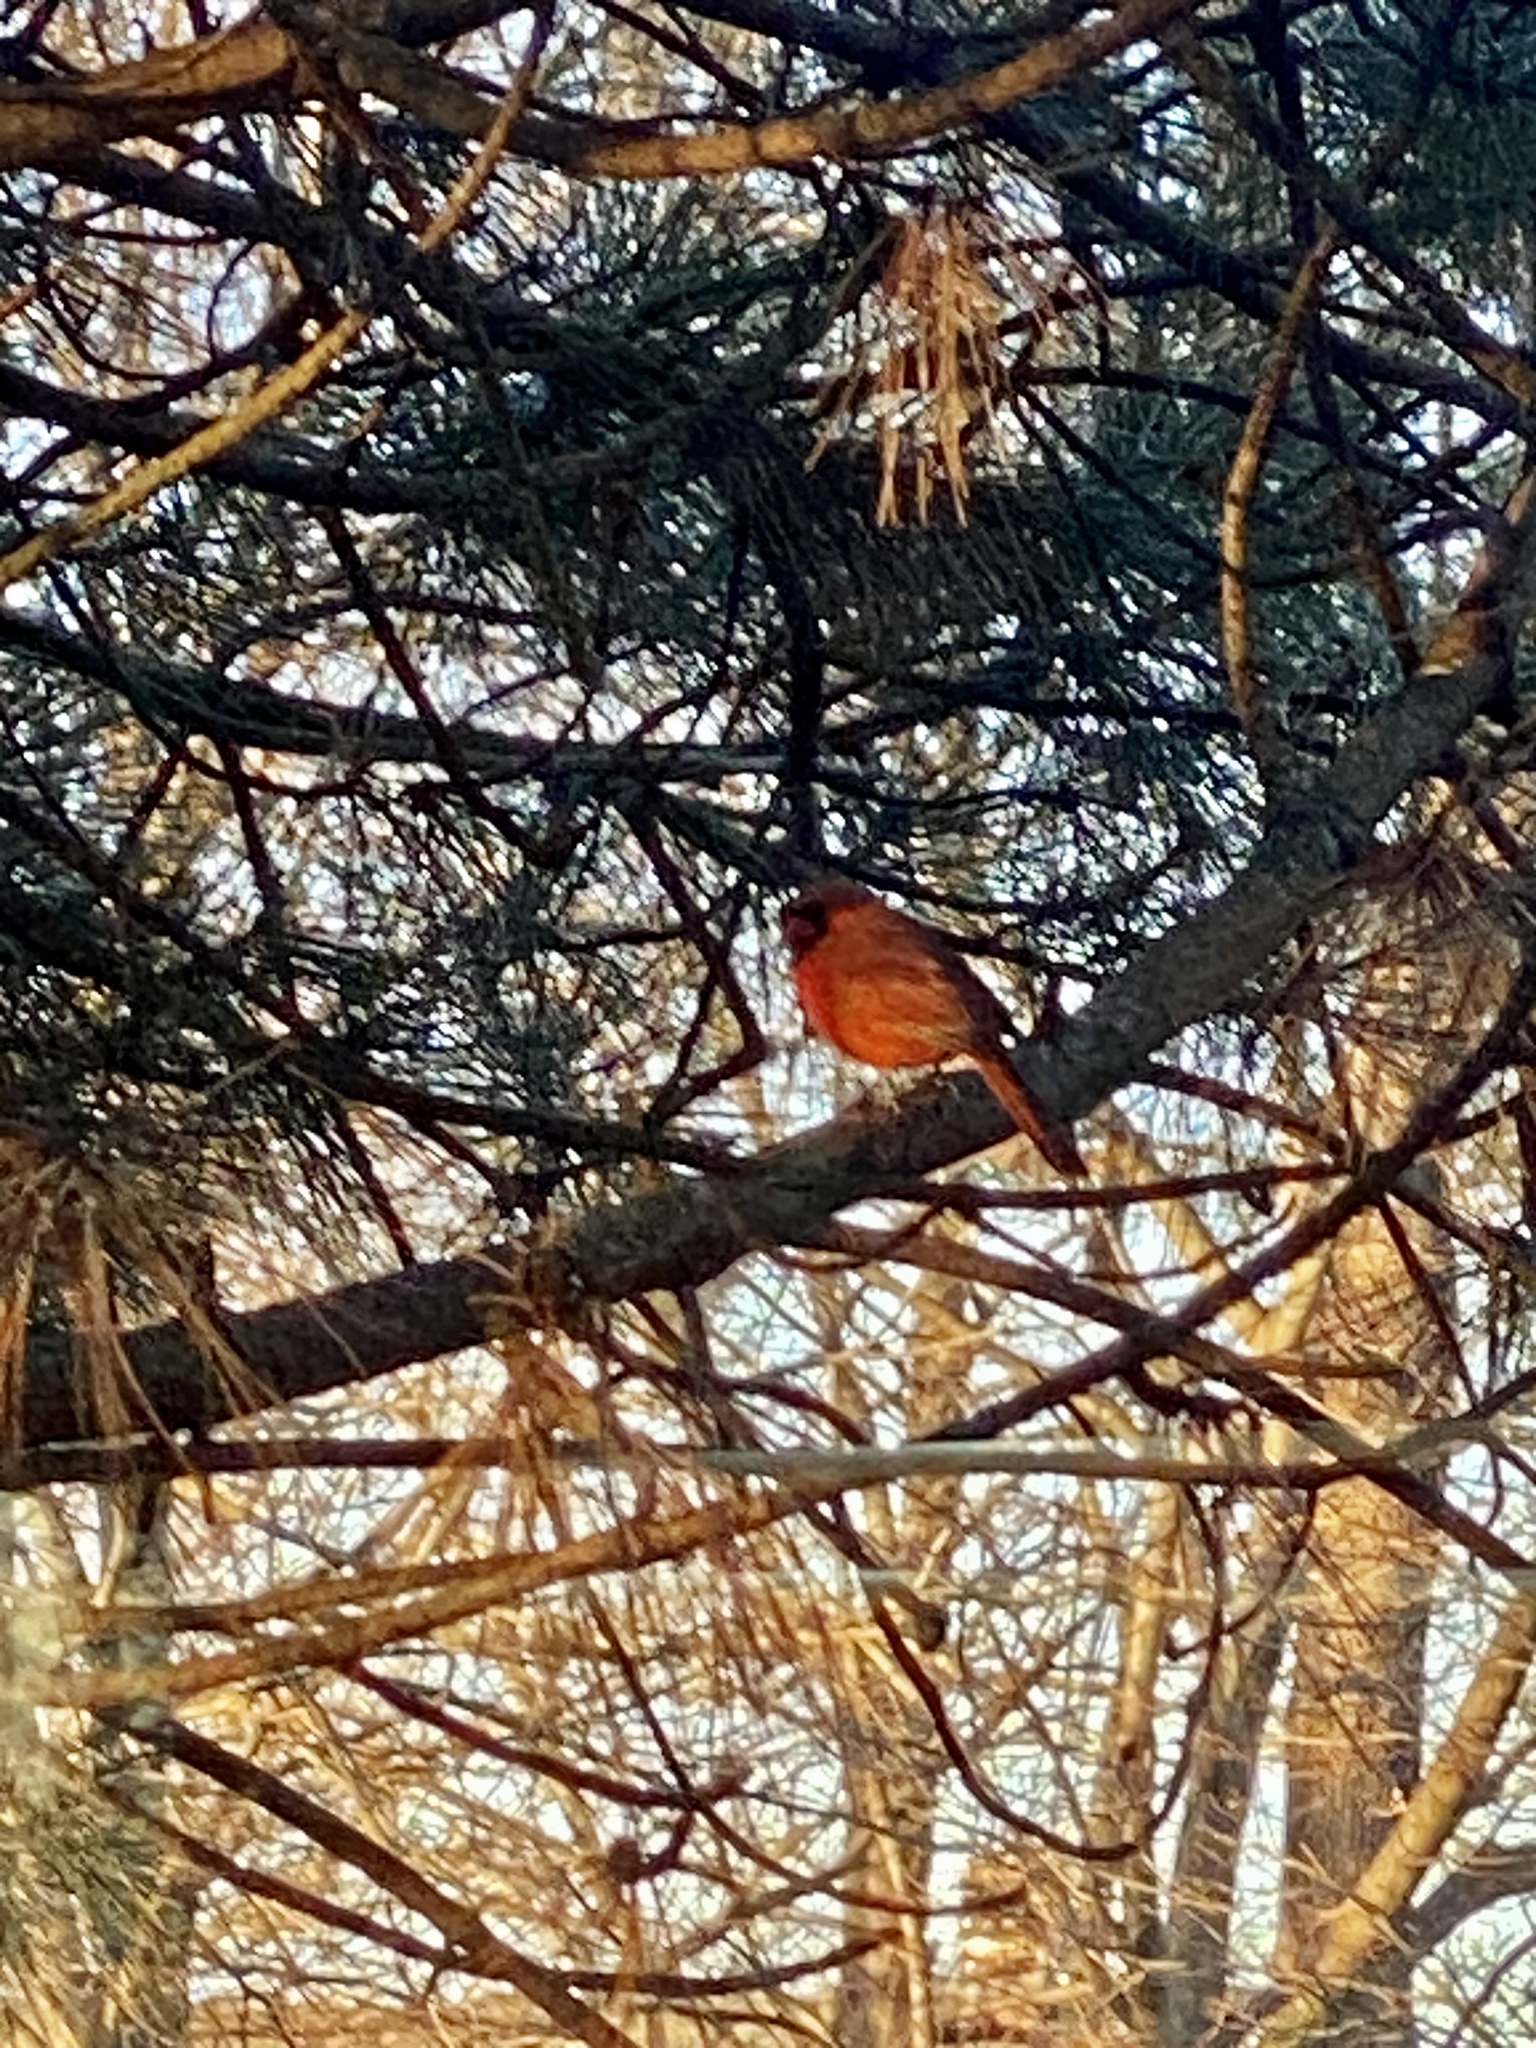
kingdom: Animalia
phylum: Chordata
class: Aves
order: Passeriformes
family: Cardinalidae
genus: Cardinalis
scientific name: Cardinalis cardinalis
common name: Northern cardinal
